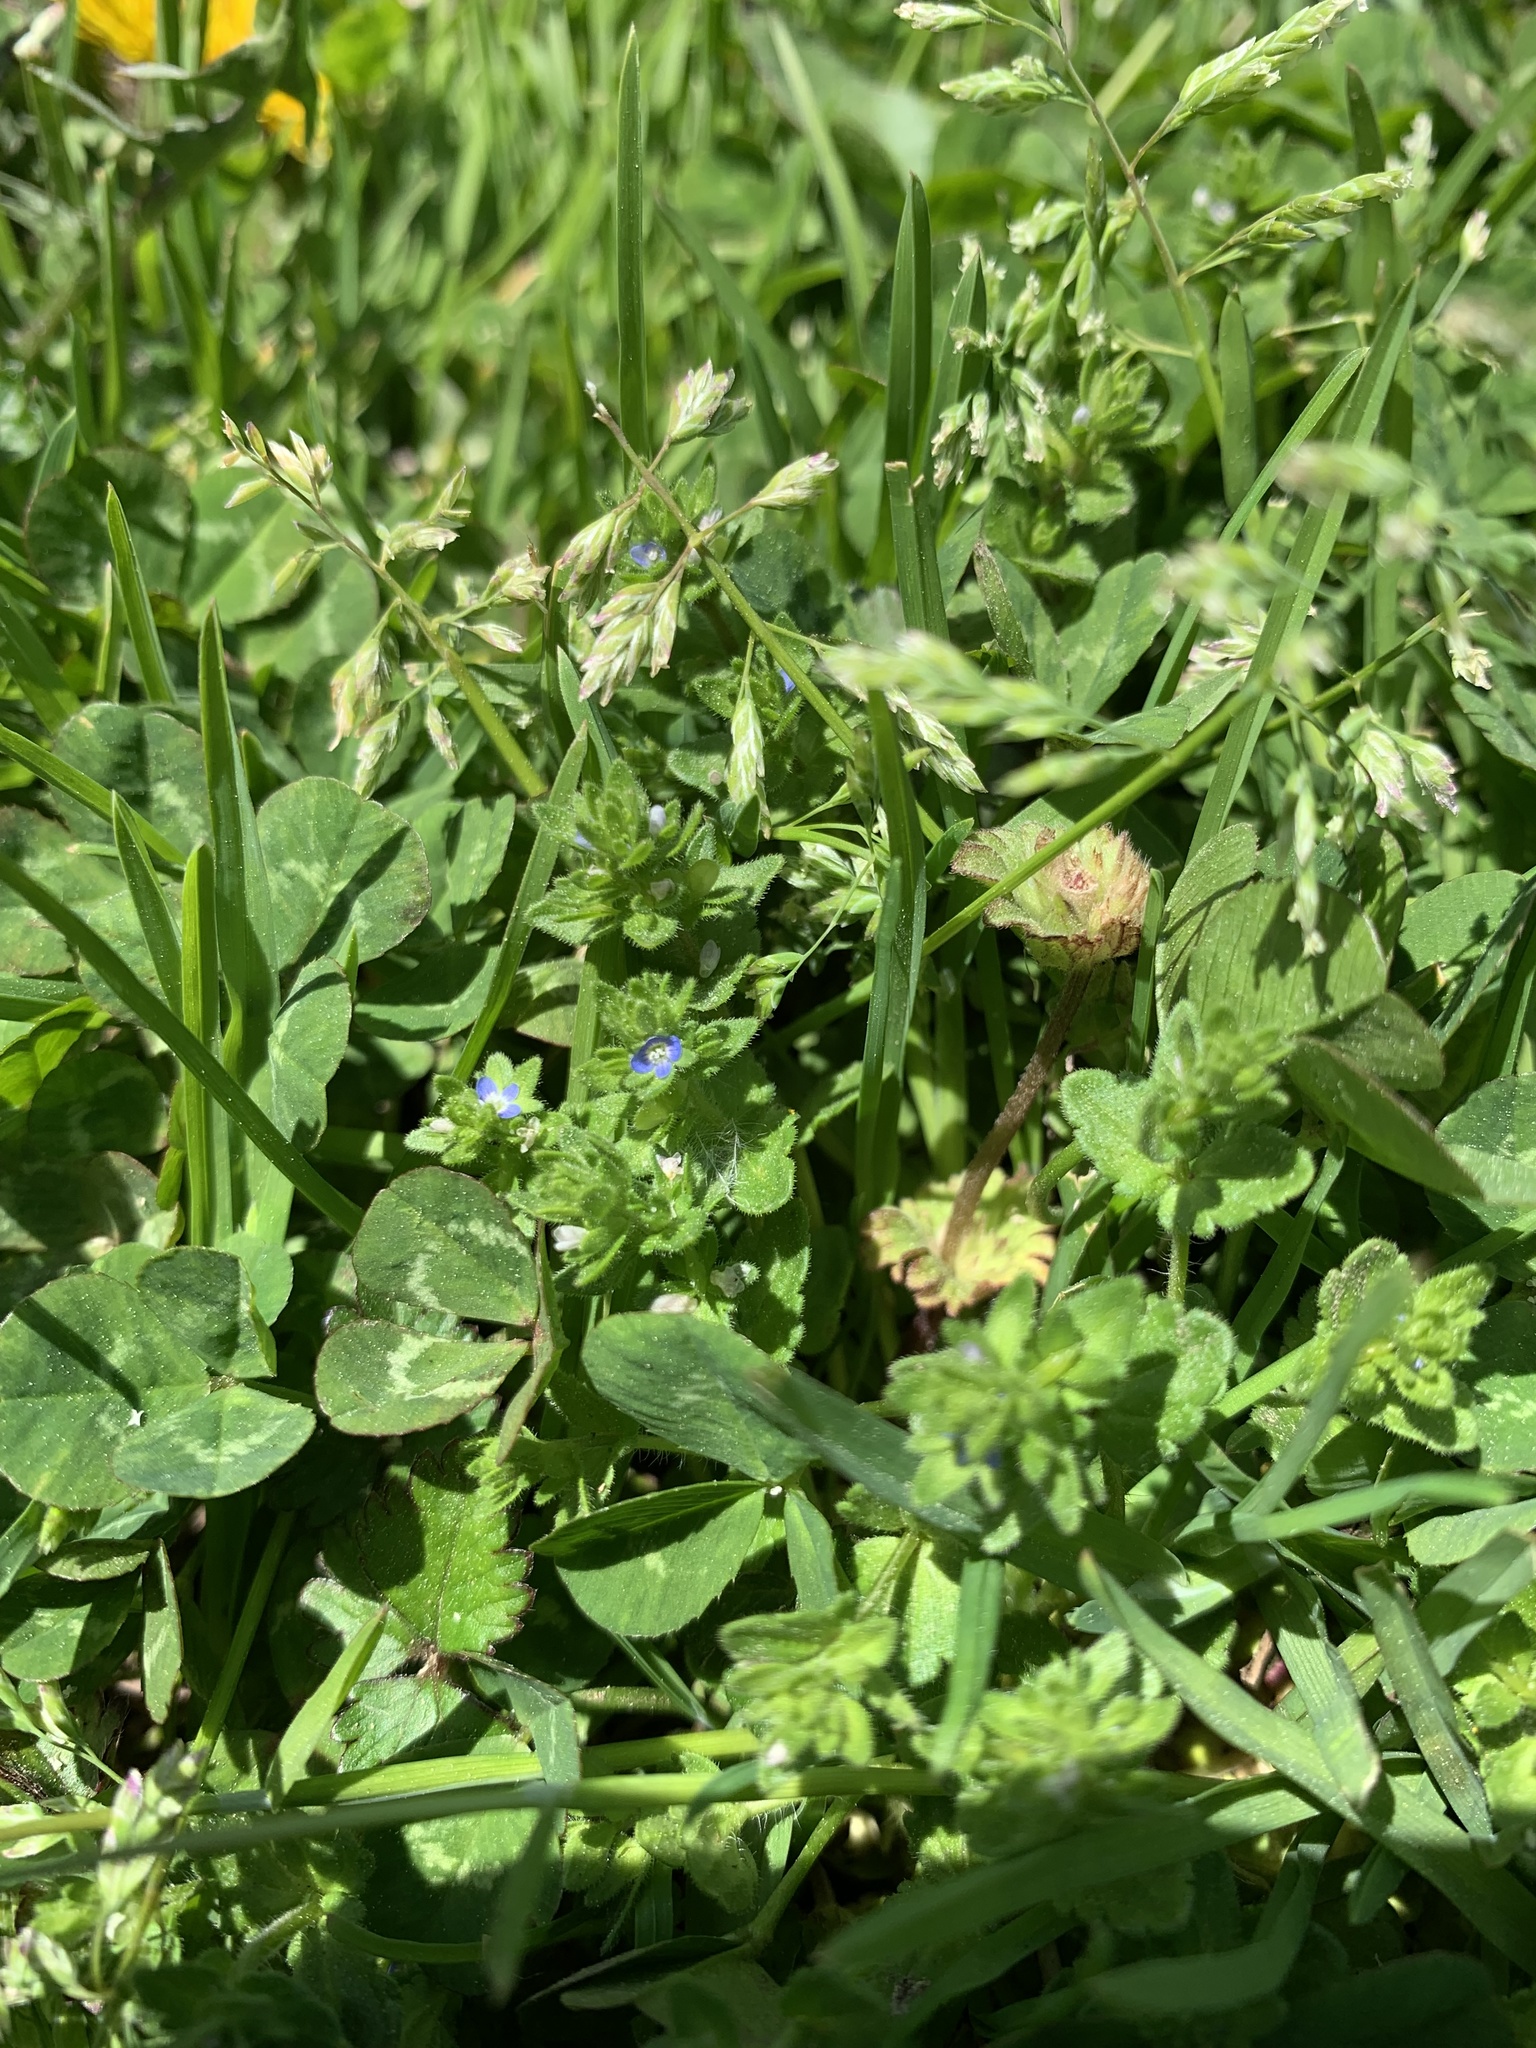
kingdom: Plantae
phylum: Tracheophyta
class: Magnoliopsida
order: Lamiales
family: Plantaginaceae
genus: Veronica
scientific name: Veronica arvensis
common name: Corn speedwell
